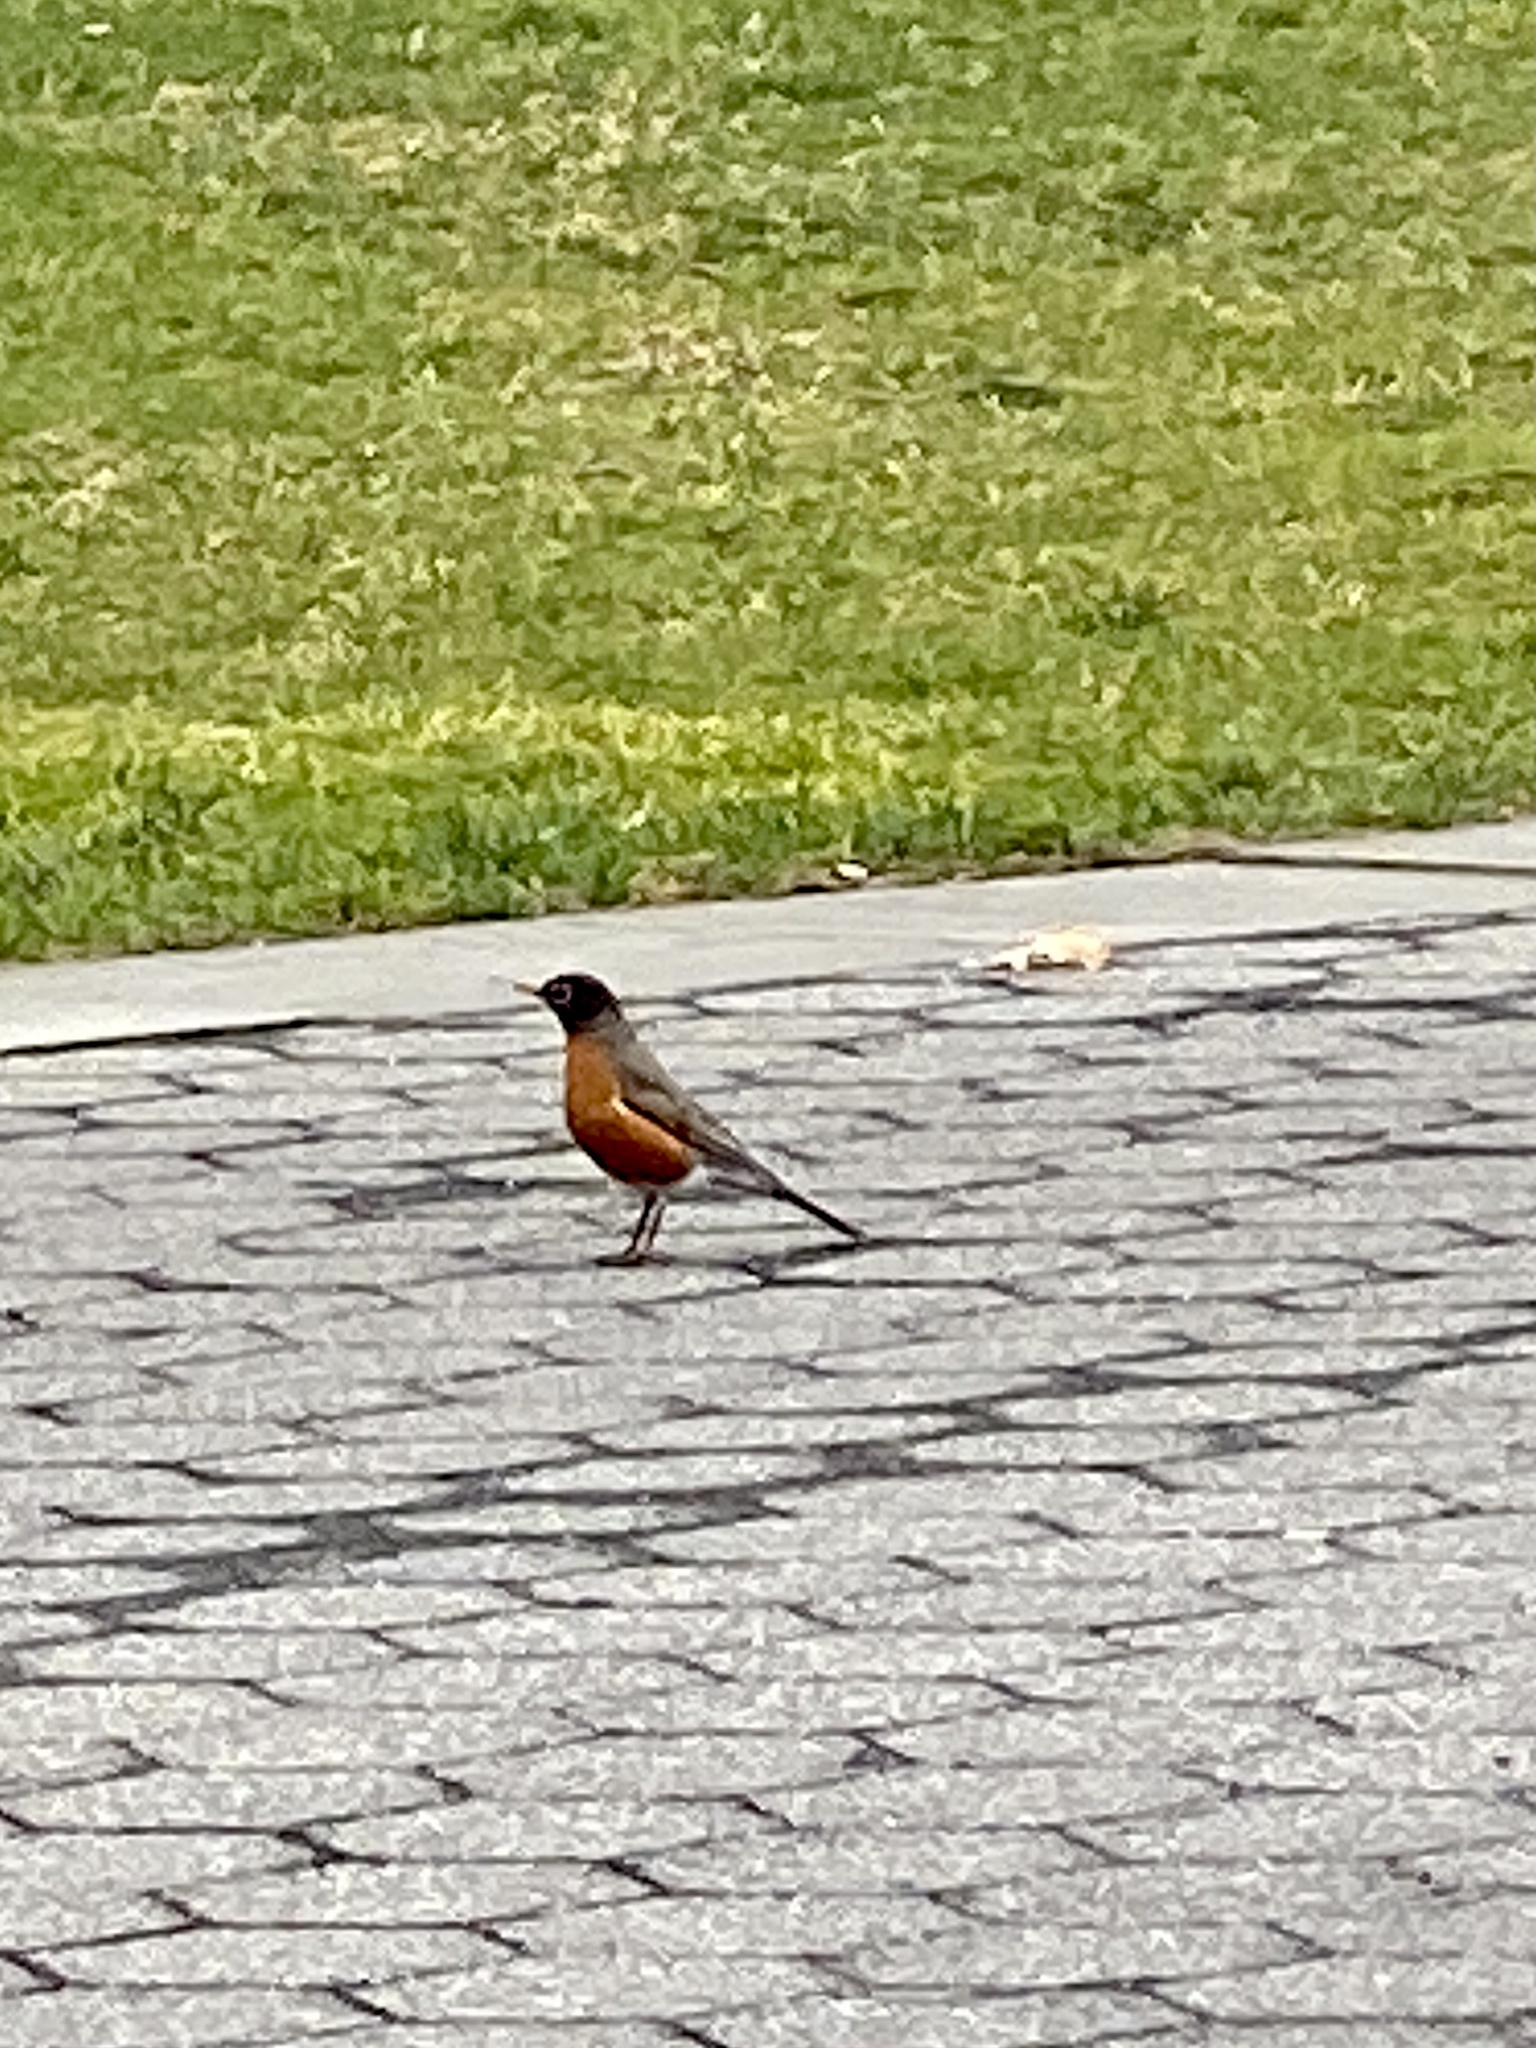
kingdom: Animalia
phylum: Chordata
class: Aves
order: Passeriformes
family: Turdidae
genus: Turdus
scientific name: Turdus migratorius
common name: American robin
